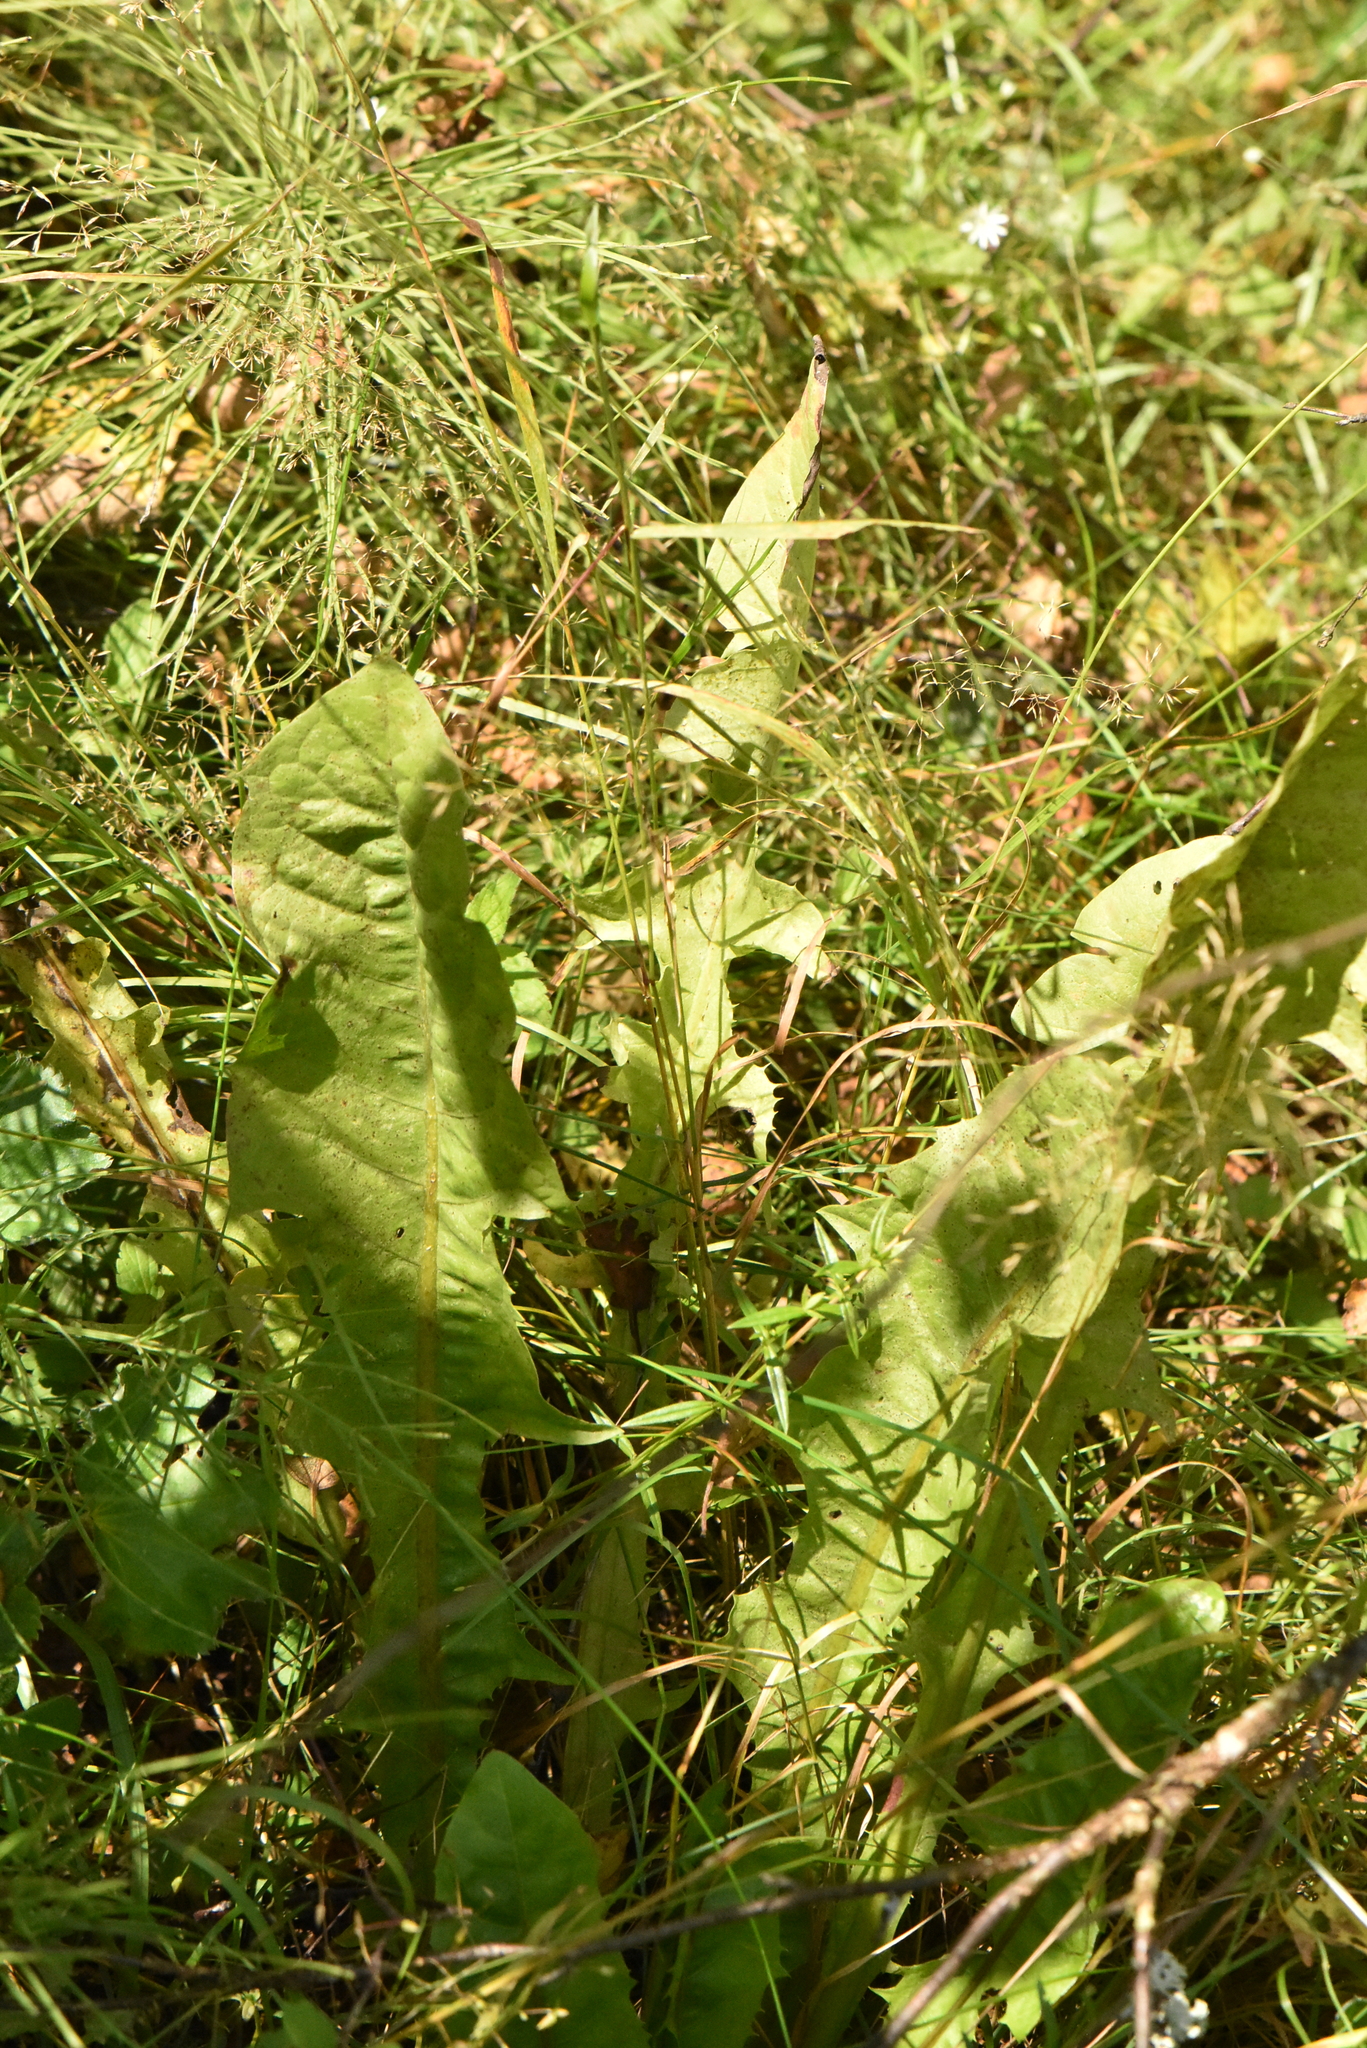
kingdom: Plantae
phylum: Tracheophyta
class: Magnoliopsida
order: Asterales
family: Asteraceae
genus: Taraxacum
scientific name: Taraxacum officinale
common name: Common dandelion
